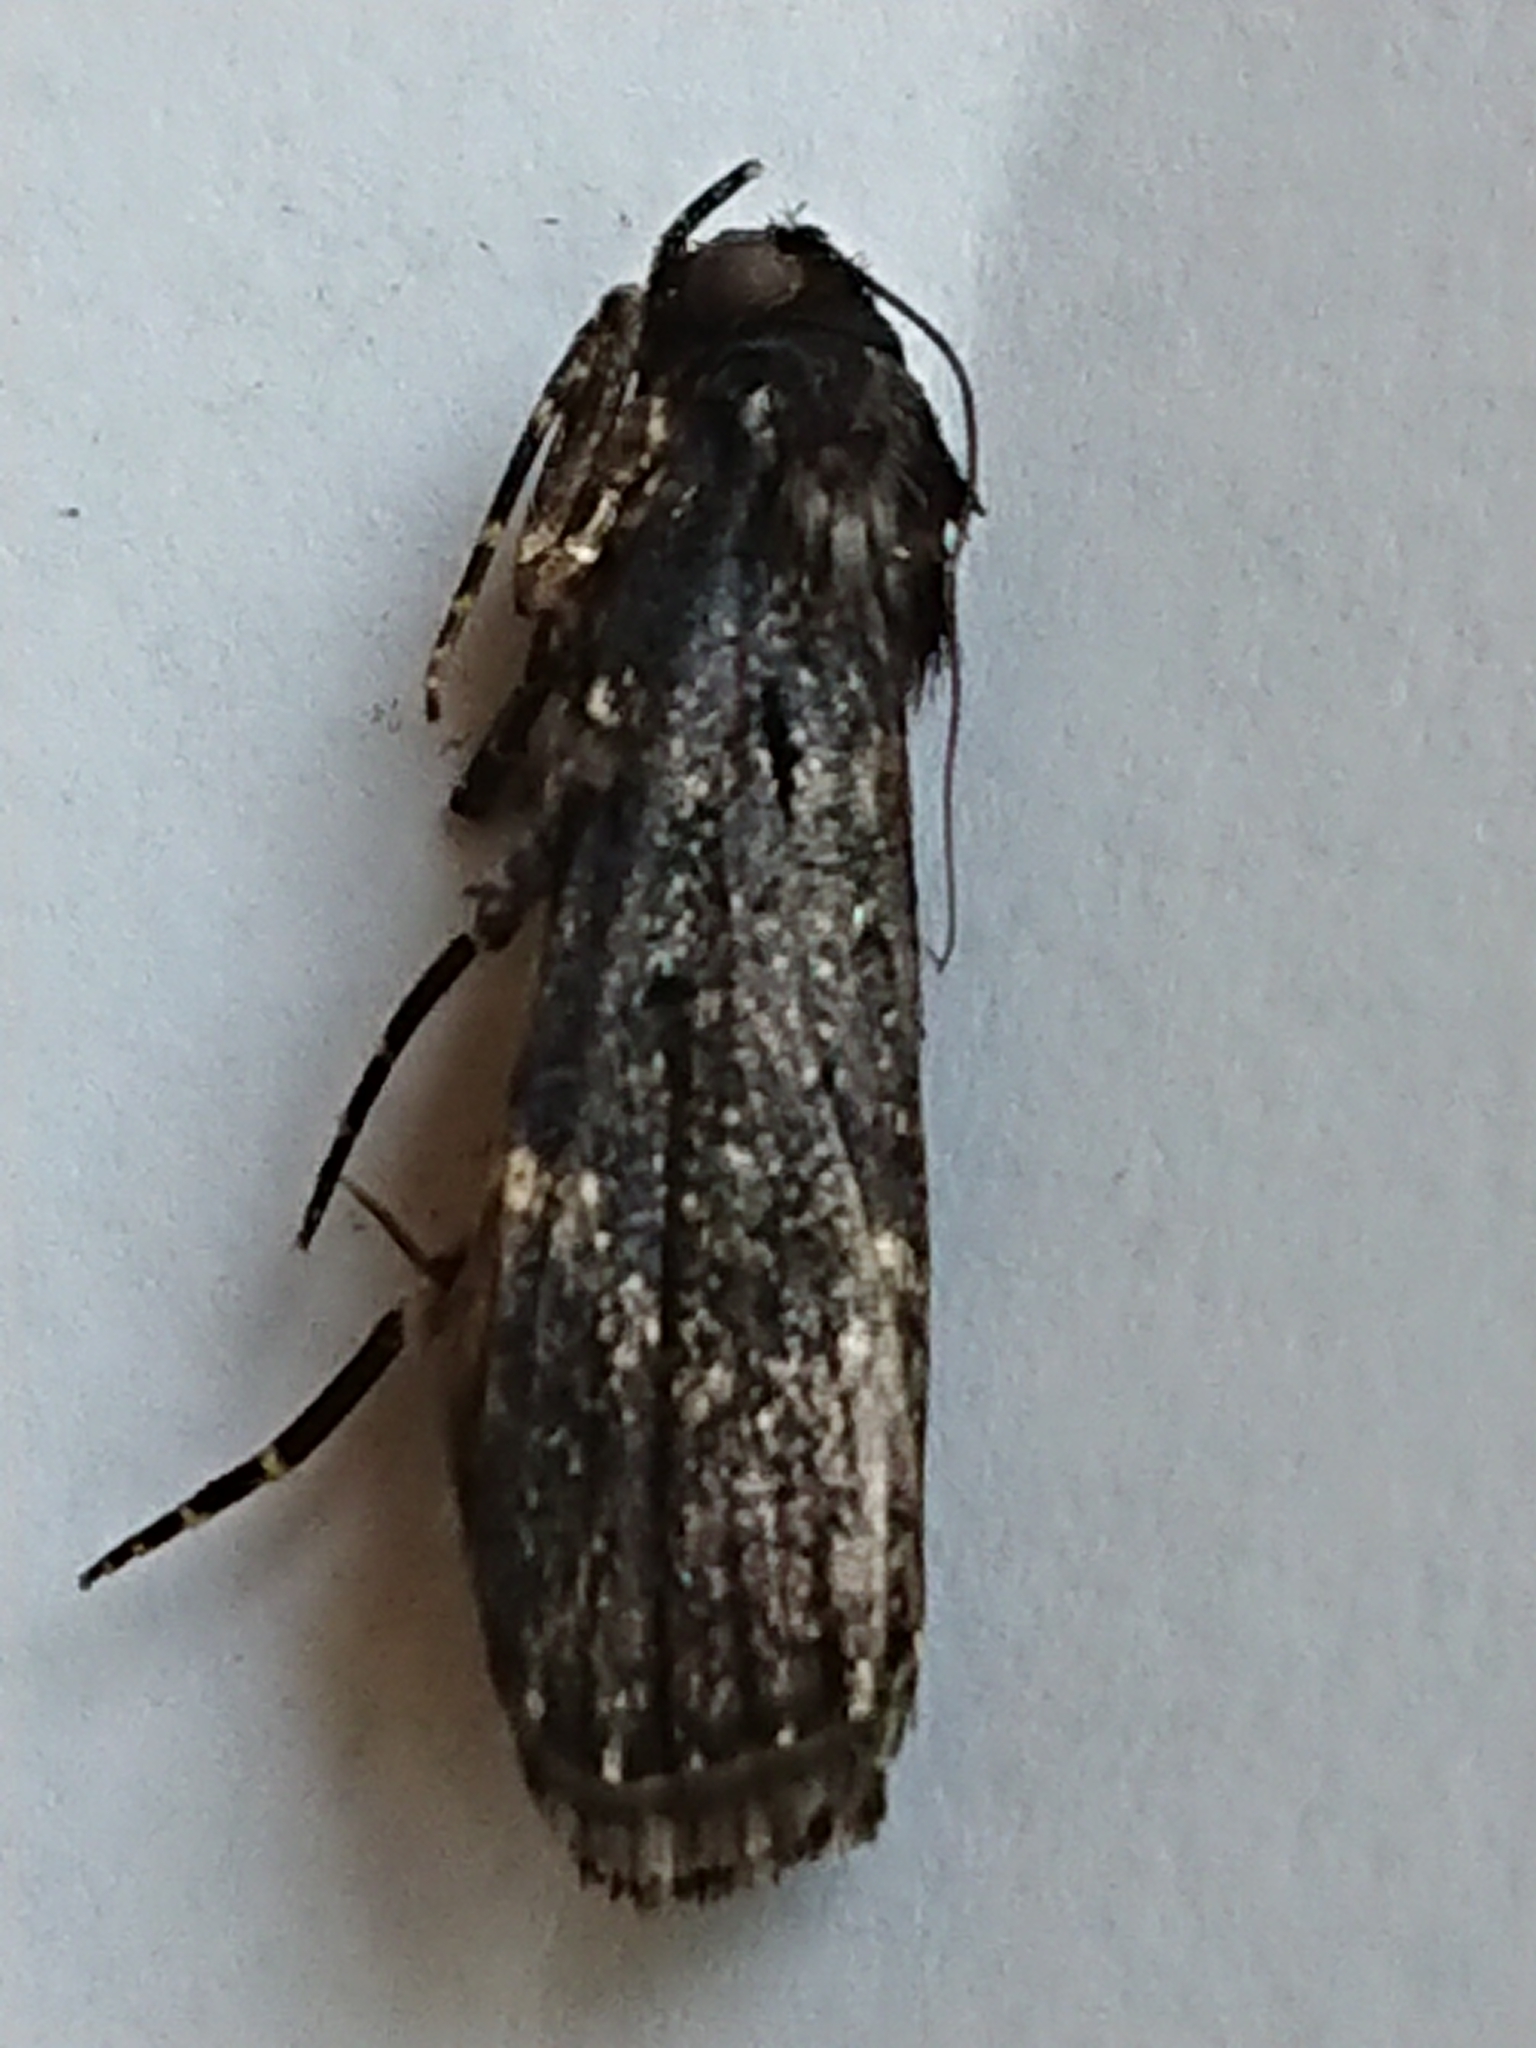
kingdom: Animalia
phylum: Arthropoda
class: Insecta
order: Lepidoptera
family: Pyralidae
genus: Stericta
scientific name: Stericta carbonalis
